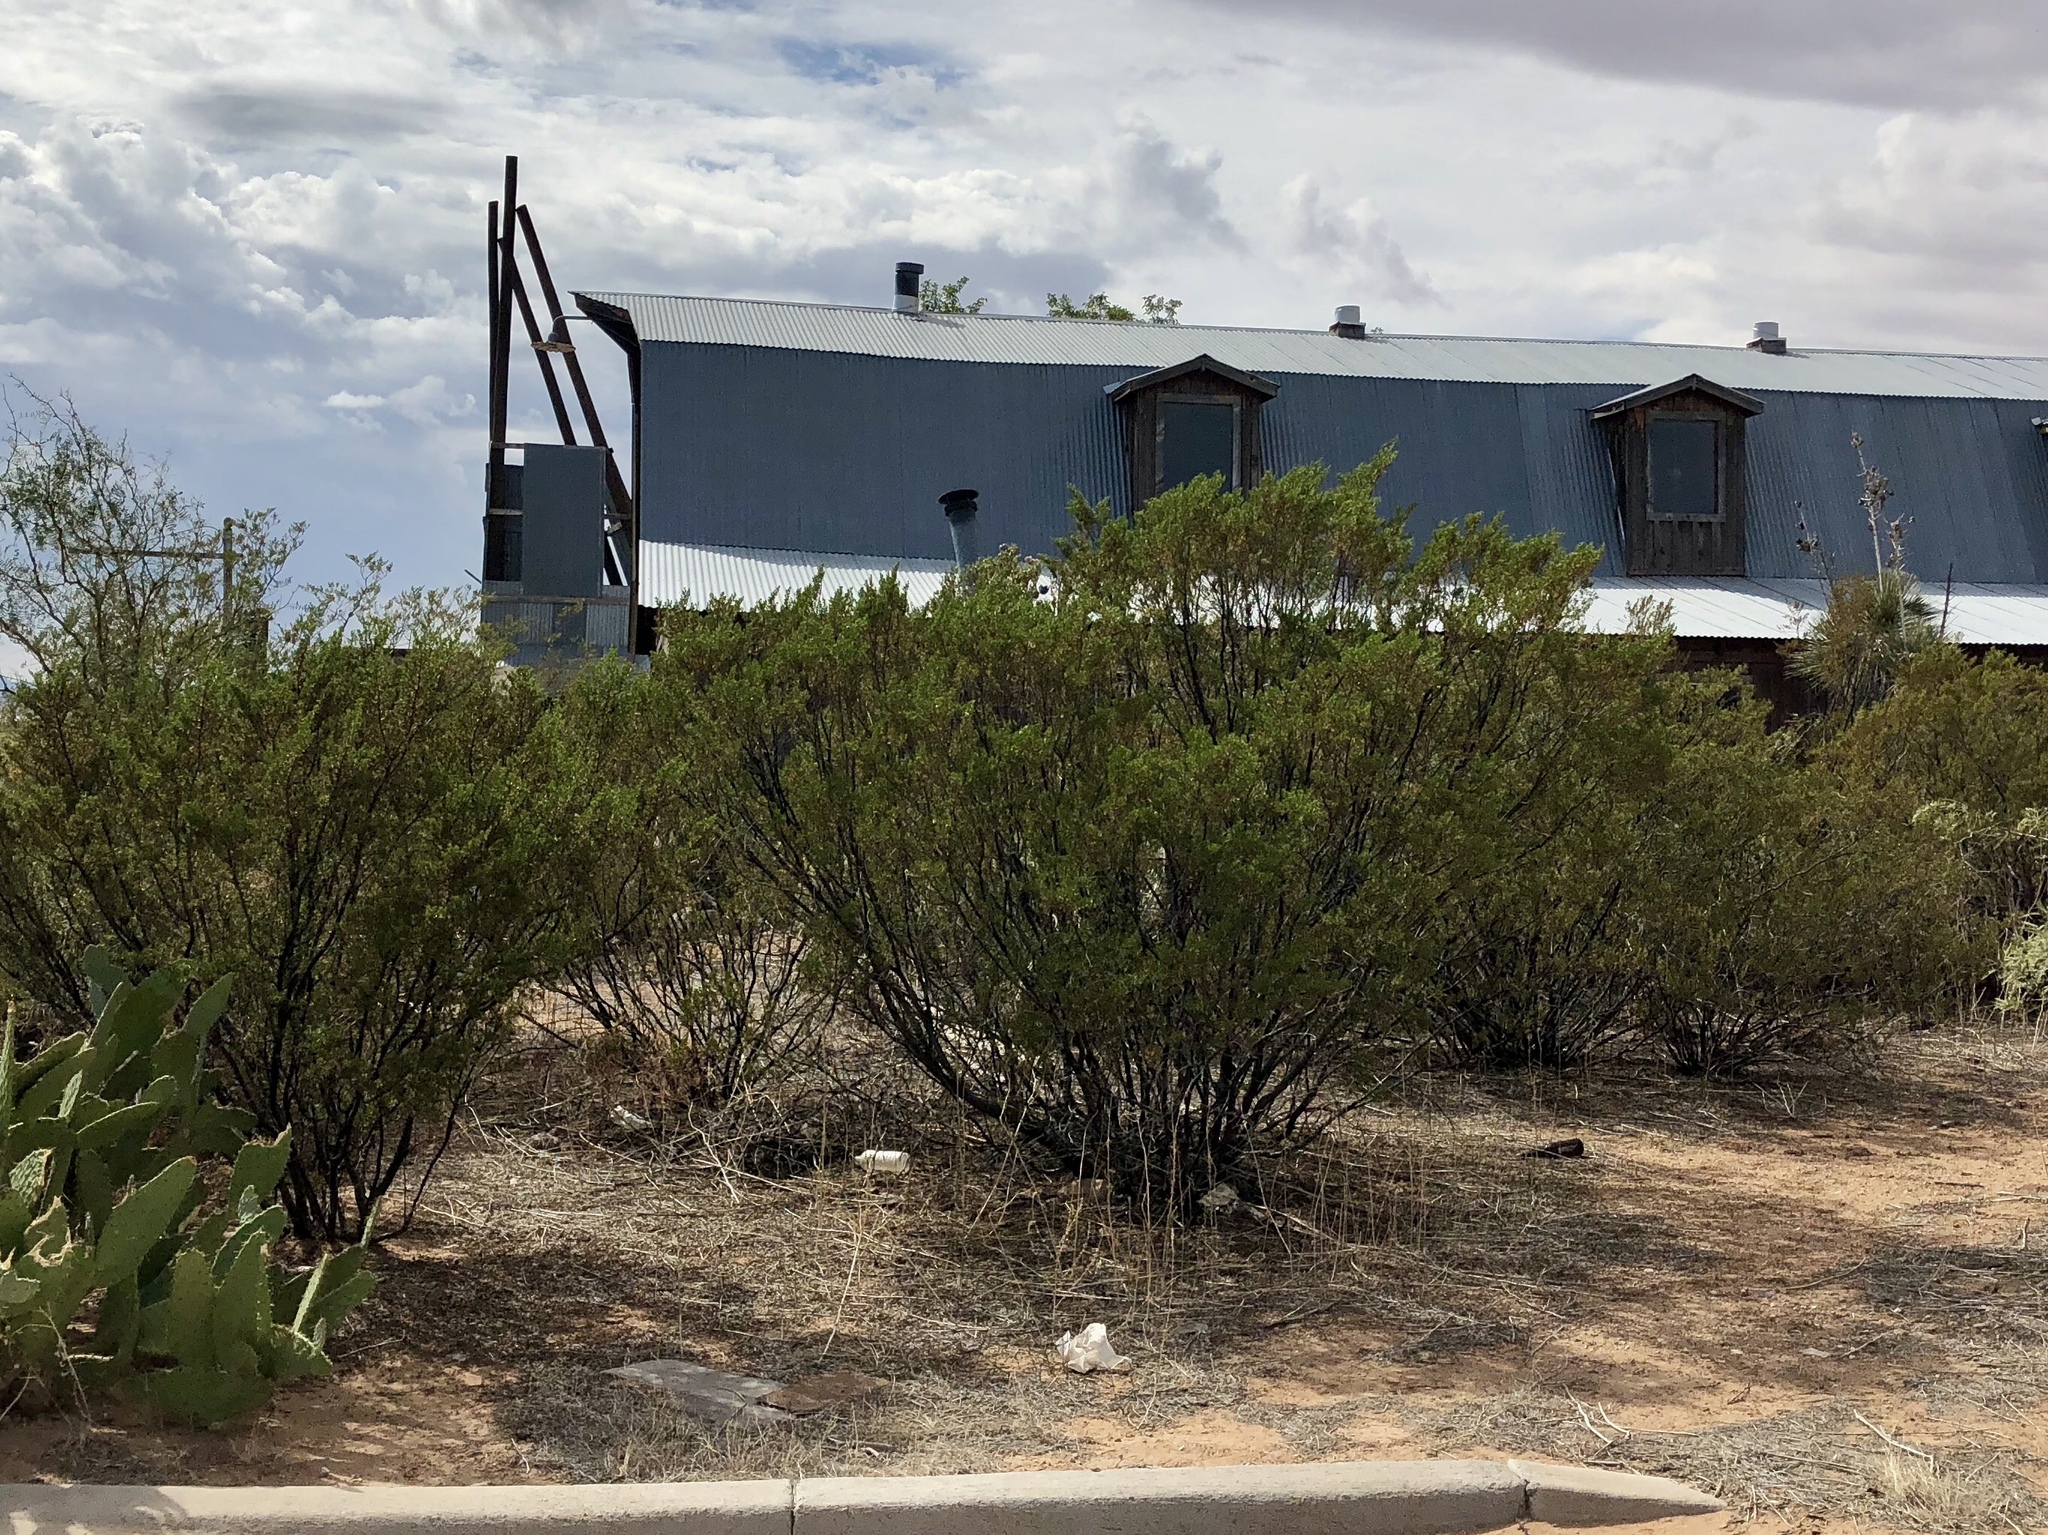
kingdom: Plantae
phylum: Tracheophyta
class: Magnoliopsida
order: Zygophyllales
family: Zygophyllaceae
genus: Larrea
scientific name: Larrea tridentata
